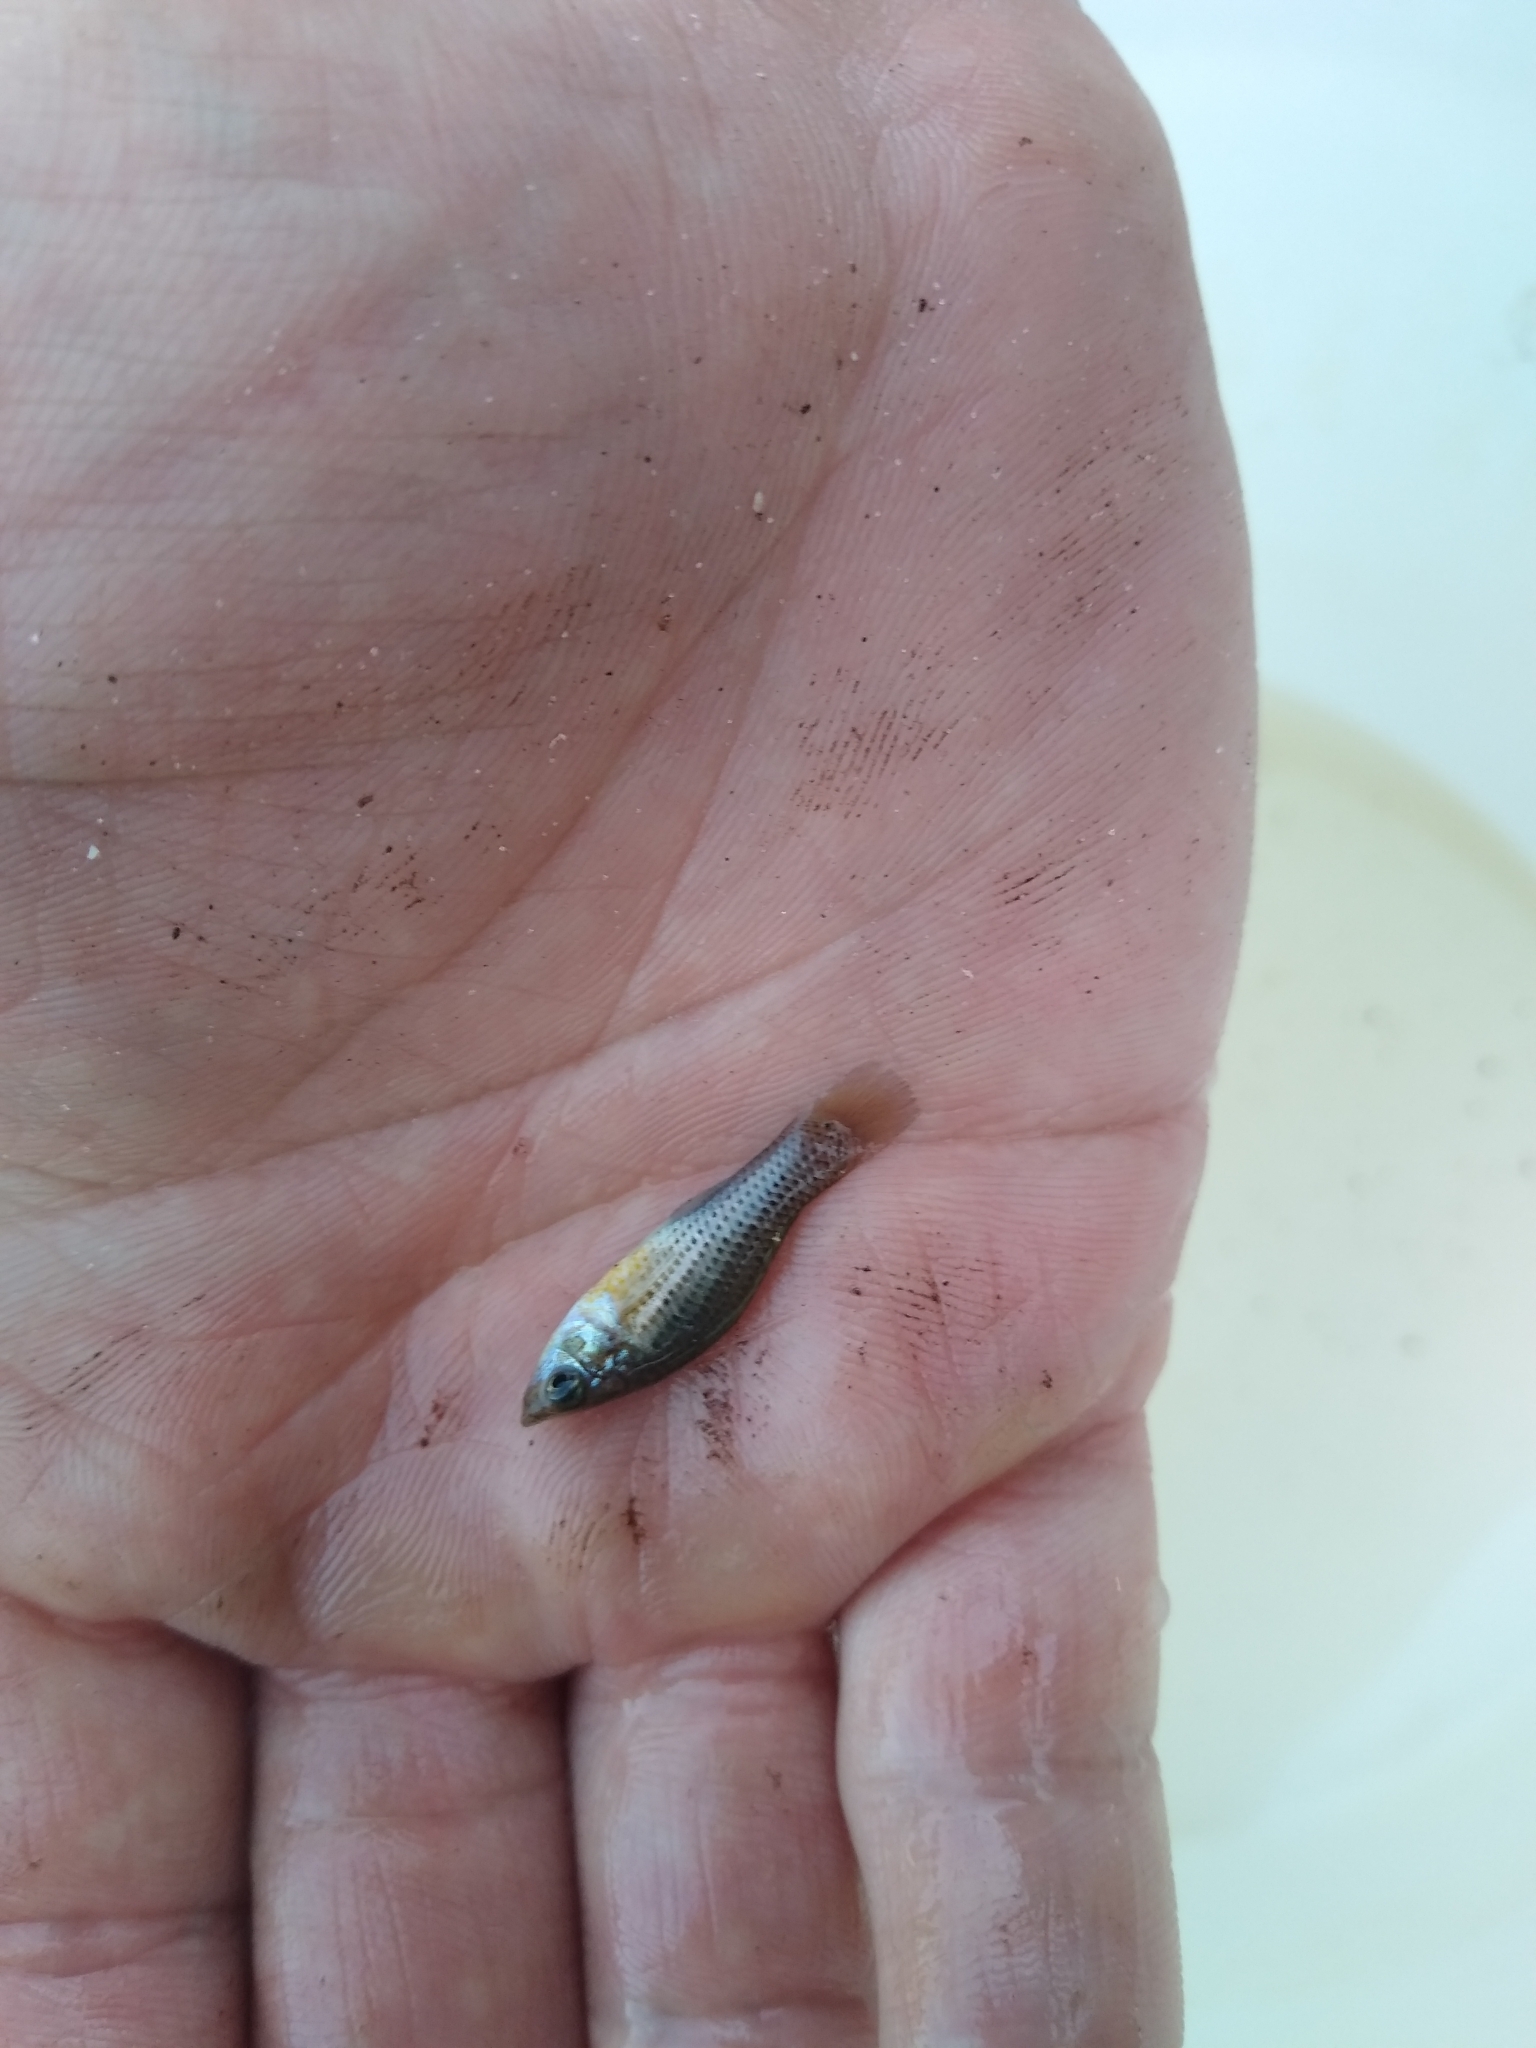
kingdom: Animalia
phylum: Chordata
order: Cyprinodontiformes
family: Poeciliidae
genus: Poecilia
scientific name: Poecilia latipinna
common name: Sailfin molly
